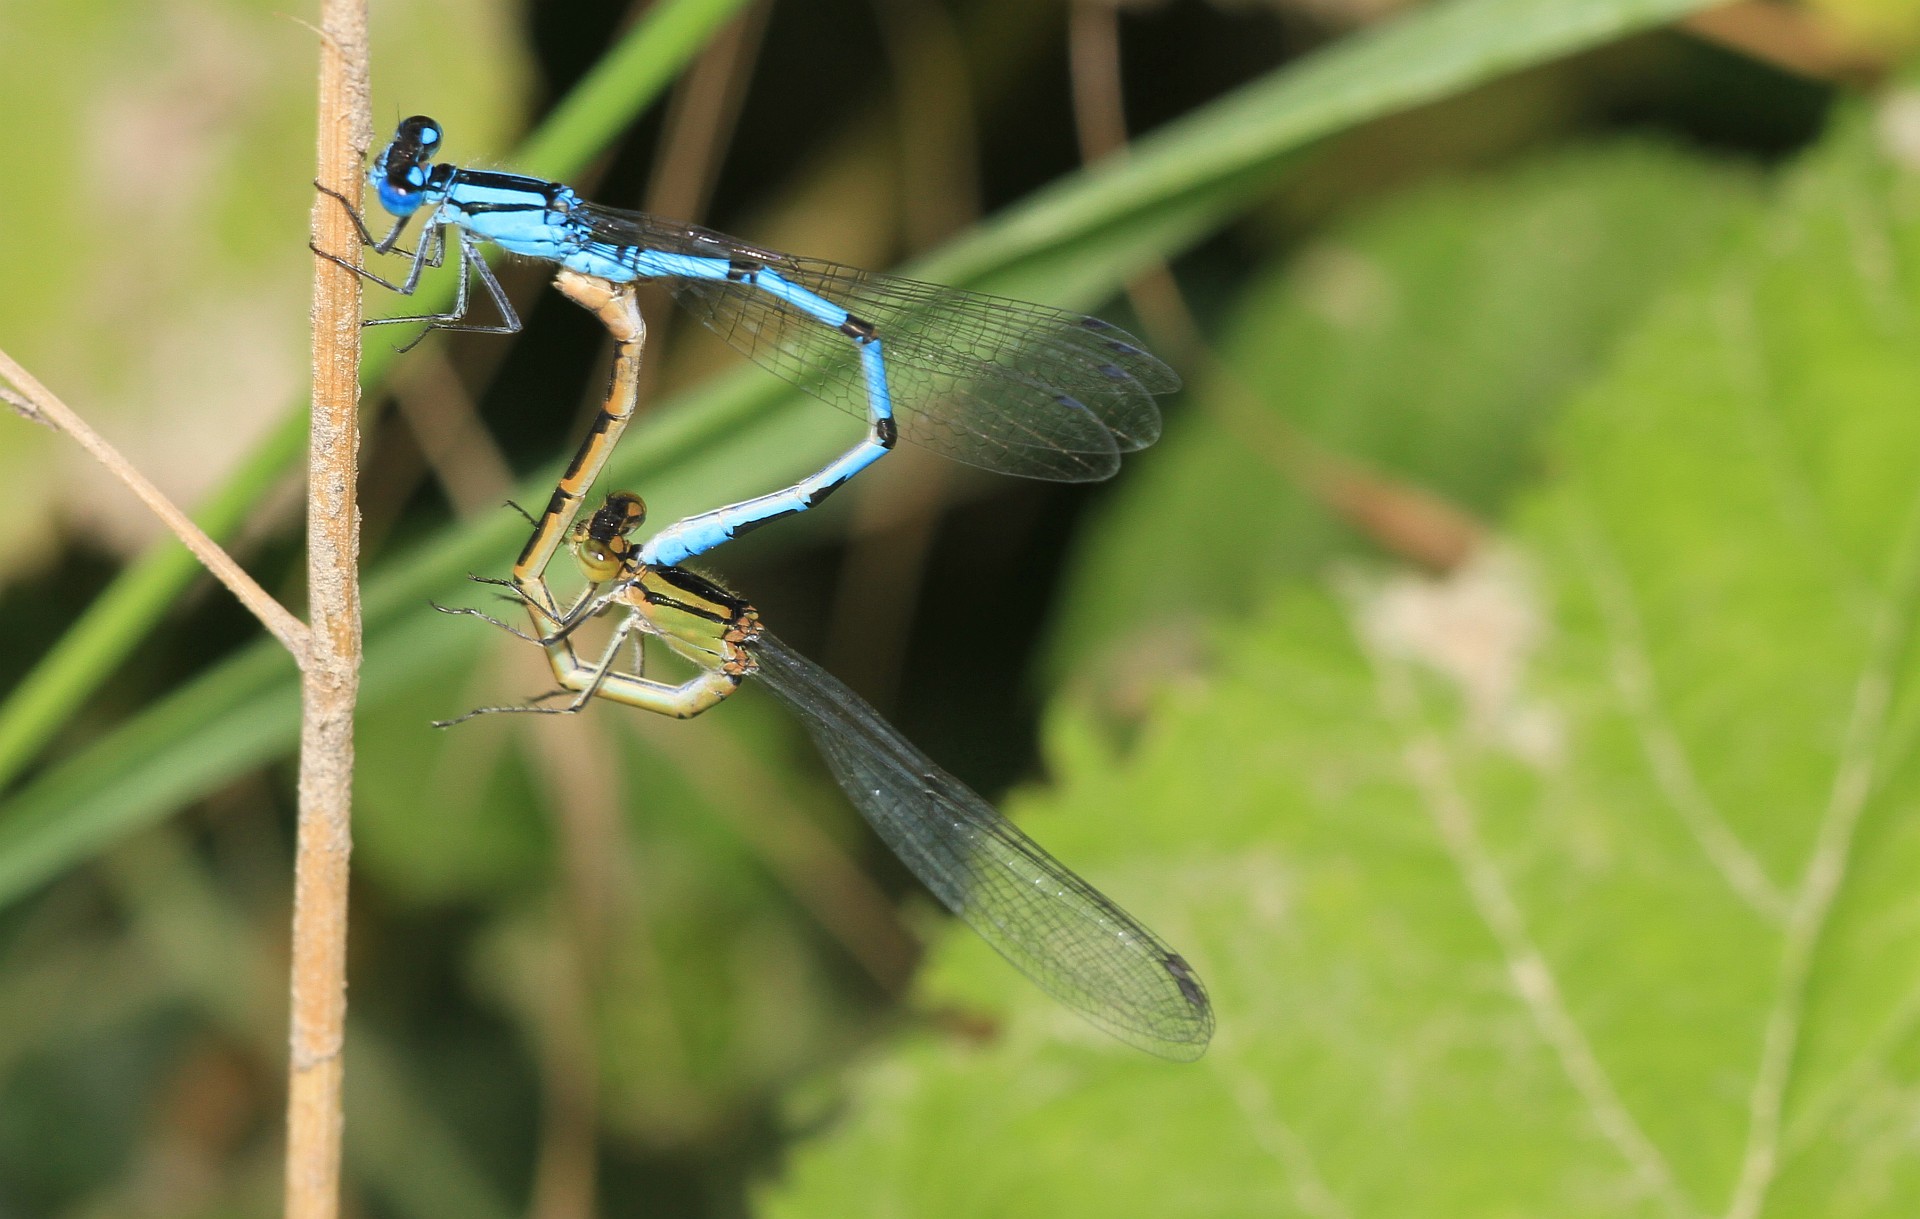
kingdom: Animalia
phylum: Arthropoda
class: Insecta
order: Odonata
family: Coenagrionidae
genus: Enallagma
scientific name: Enallagma cyathigerum
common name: Common blue damselfly
